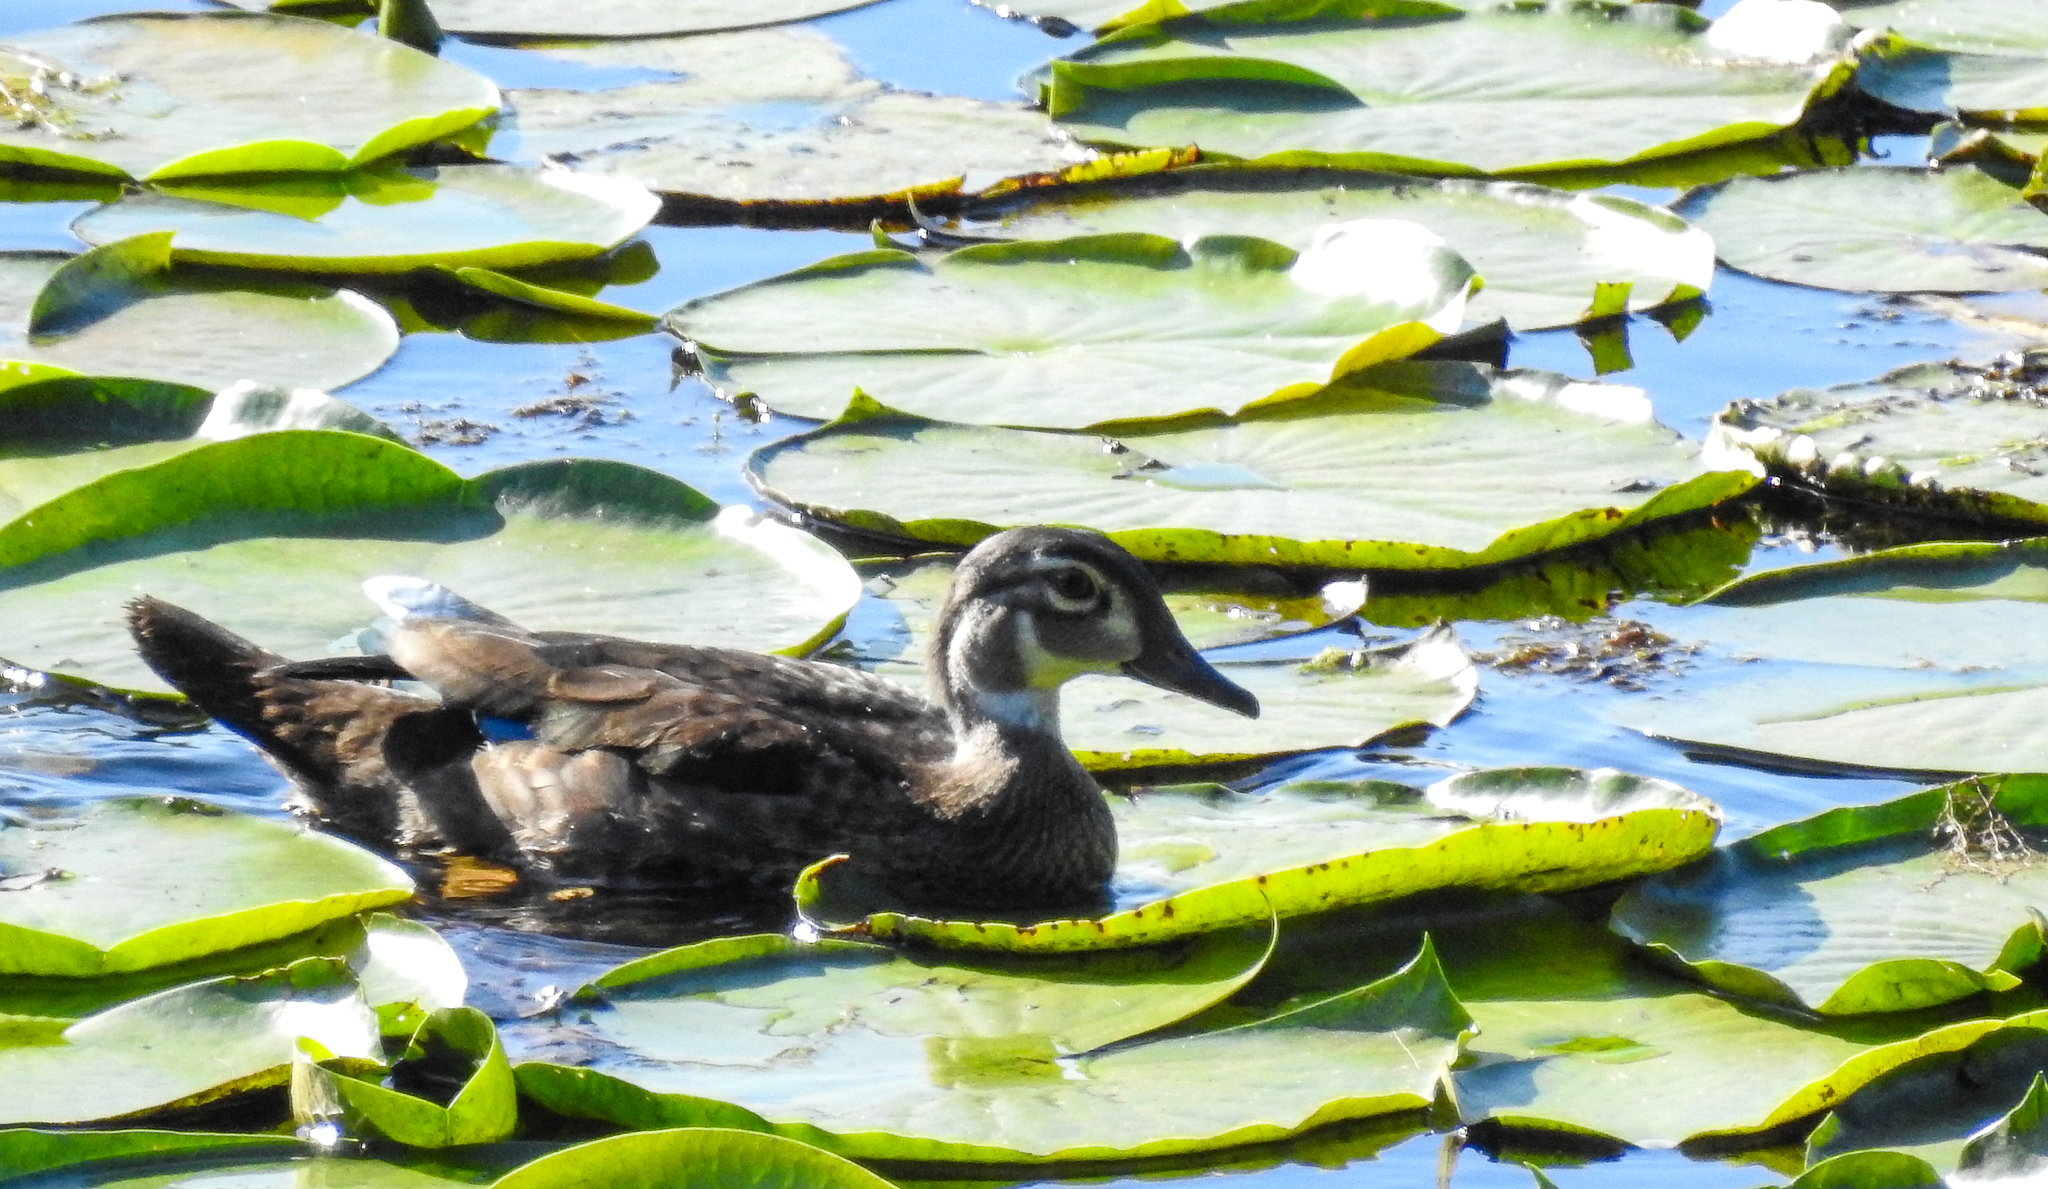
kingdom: Animalia
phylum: Chordata
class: Aves
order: Anseriformes
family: Anatidae
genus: Aix
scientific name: Aix sponsa
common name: Wood duck
